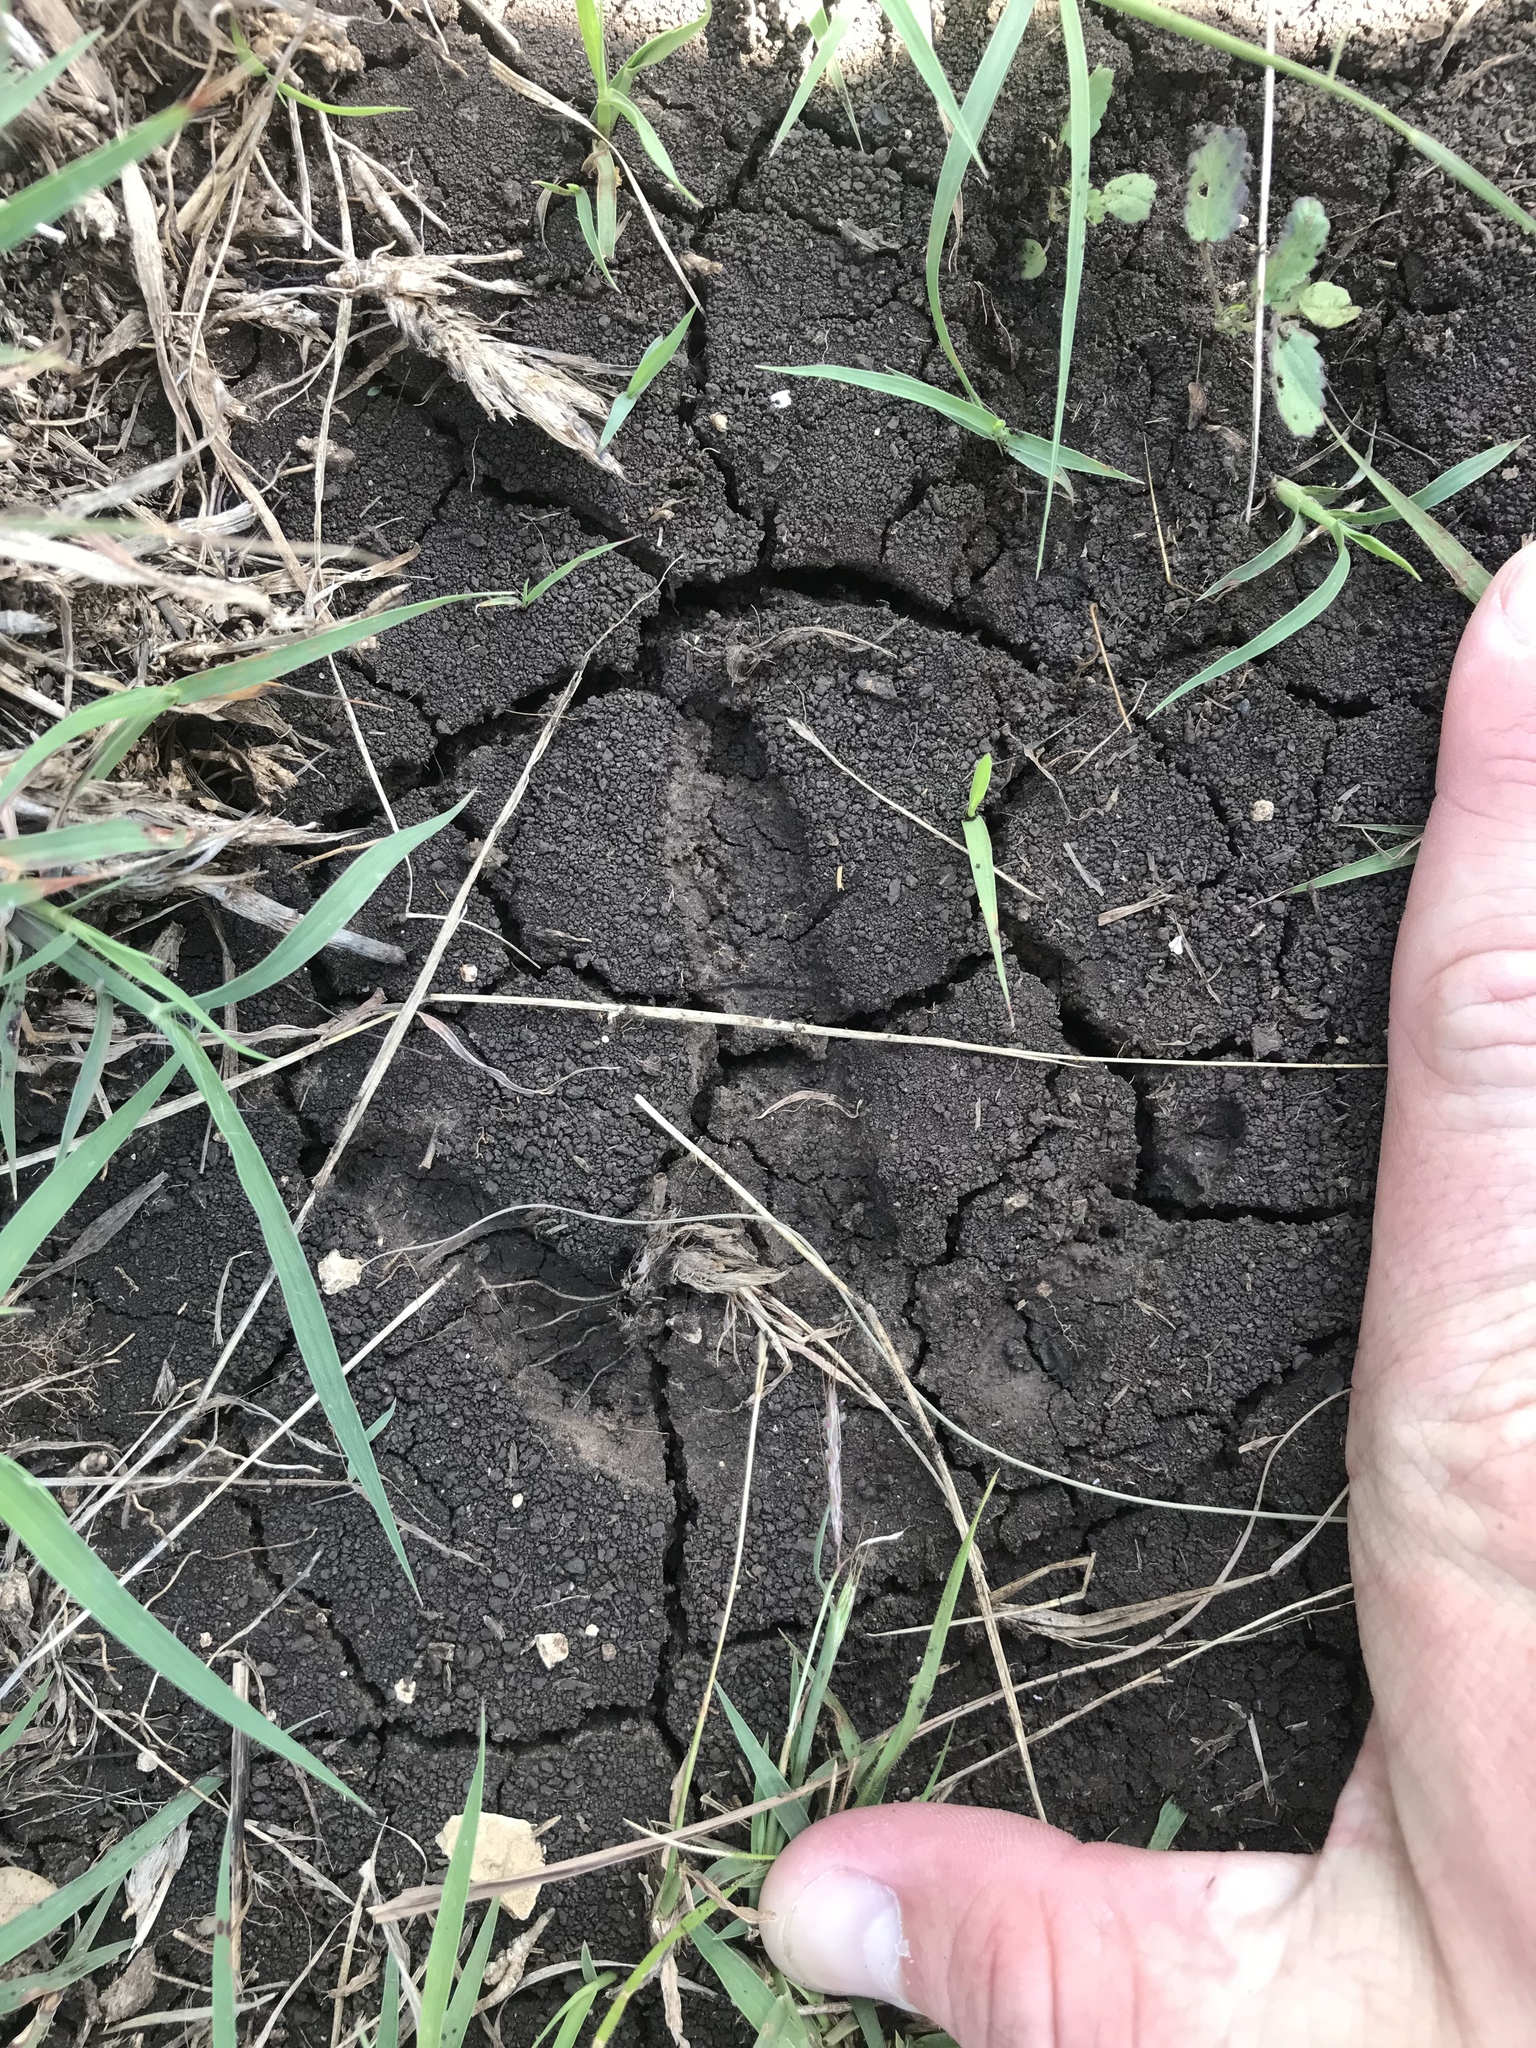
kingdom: Animalia
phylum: Chordata
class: Aves
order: Galliformes
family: Phasianidae
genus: Meleagris
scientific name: Meleagris gallopavo
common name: Wild turkey
